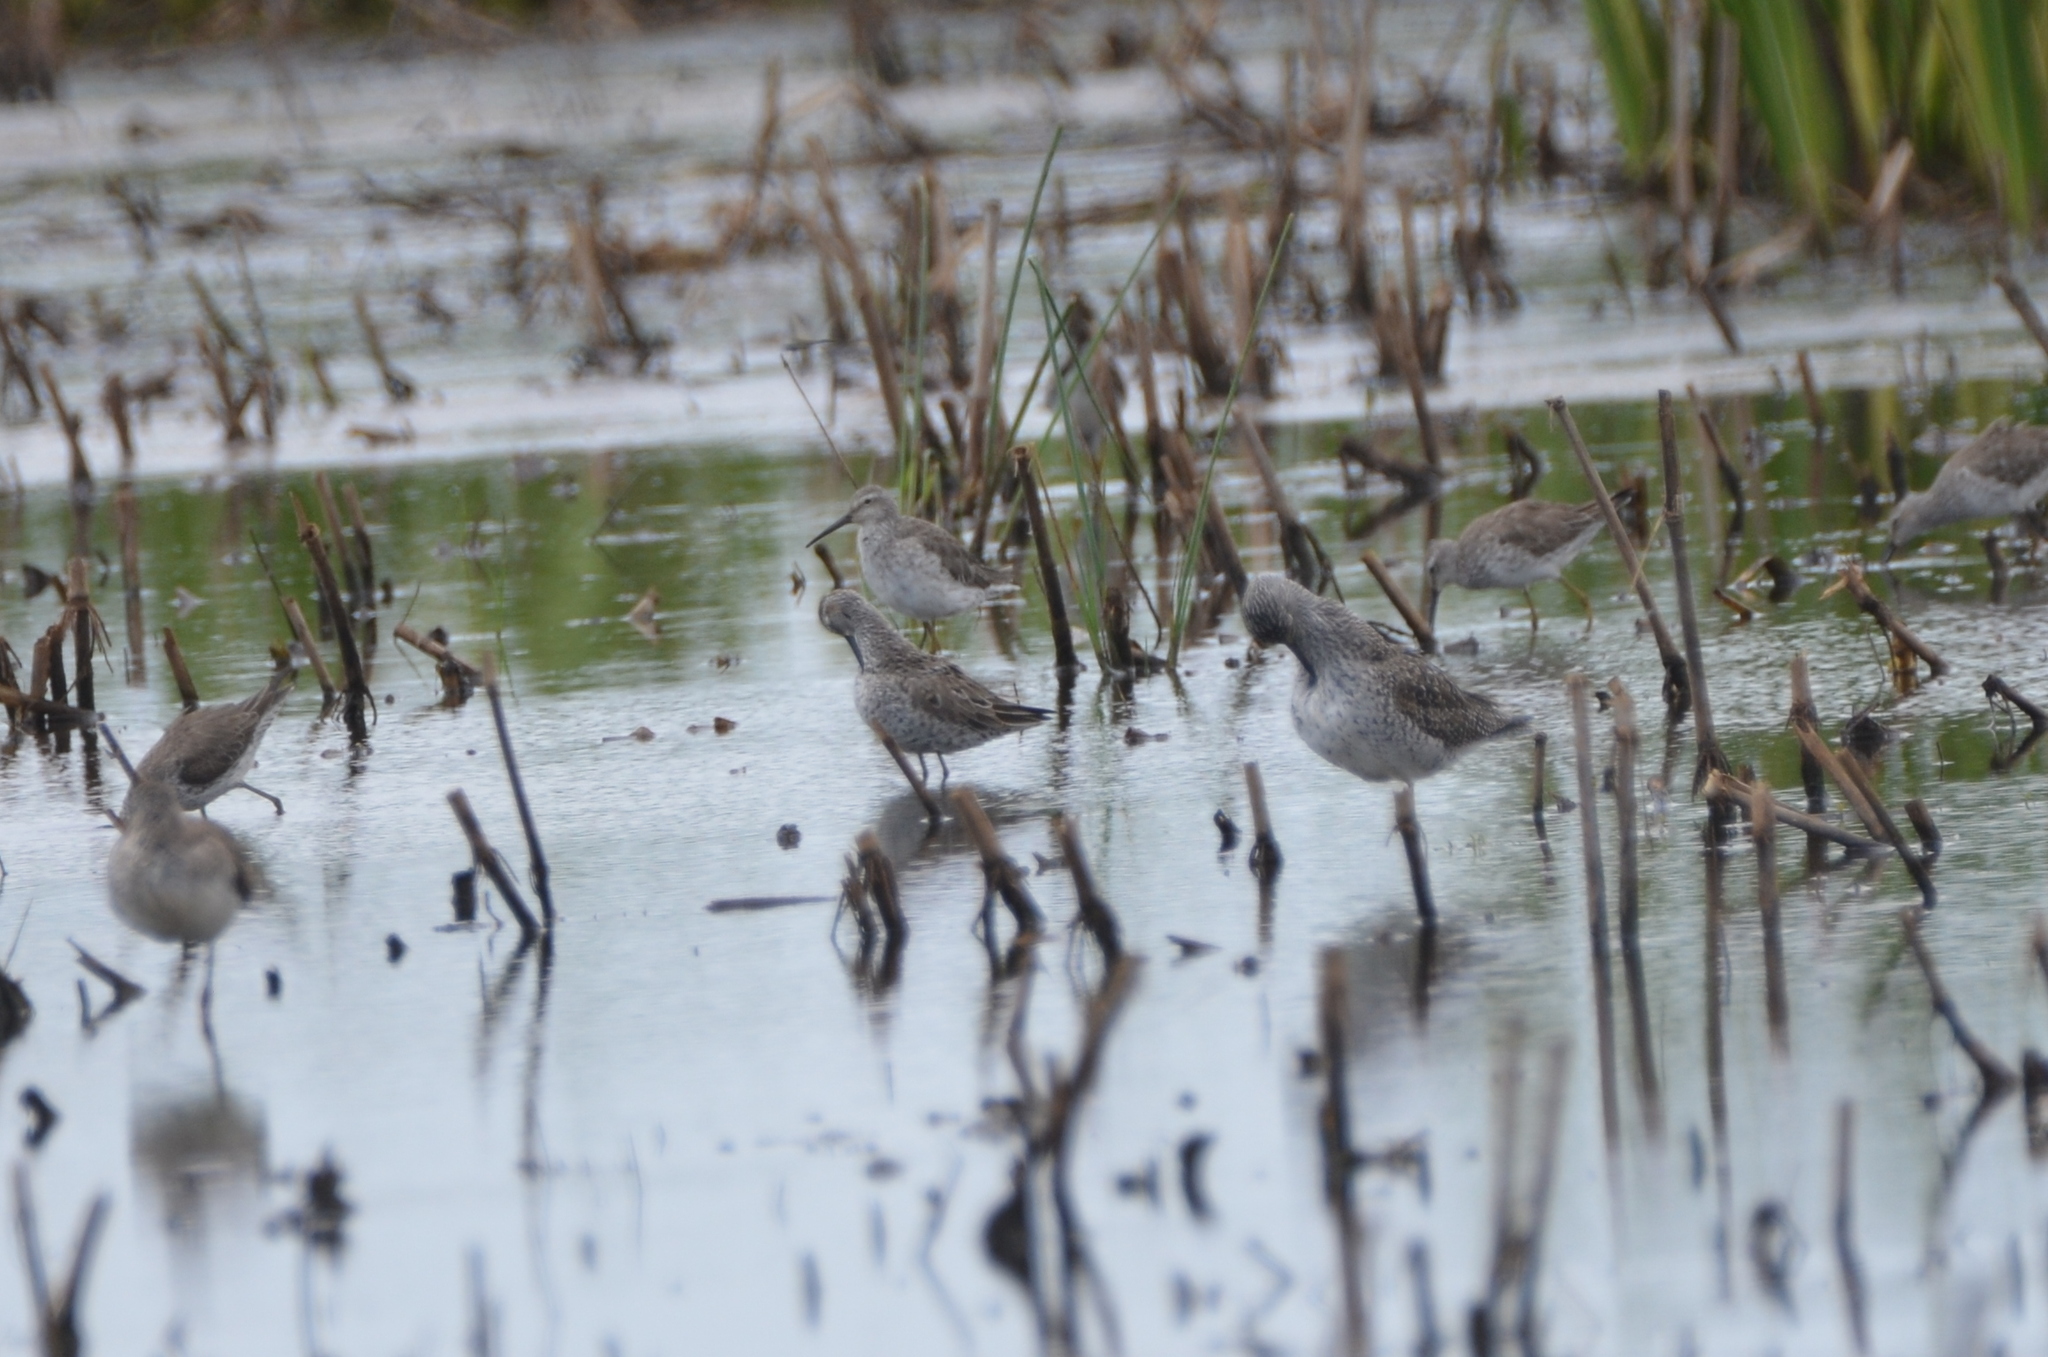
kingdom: Animalia
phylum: Chordata
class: Aves
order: Charadriiformes
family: Scolopacidae
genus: Calidris
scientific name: Calidris himantopus
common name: Stilt sandpiper
